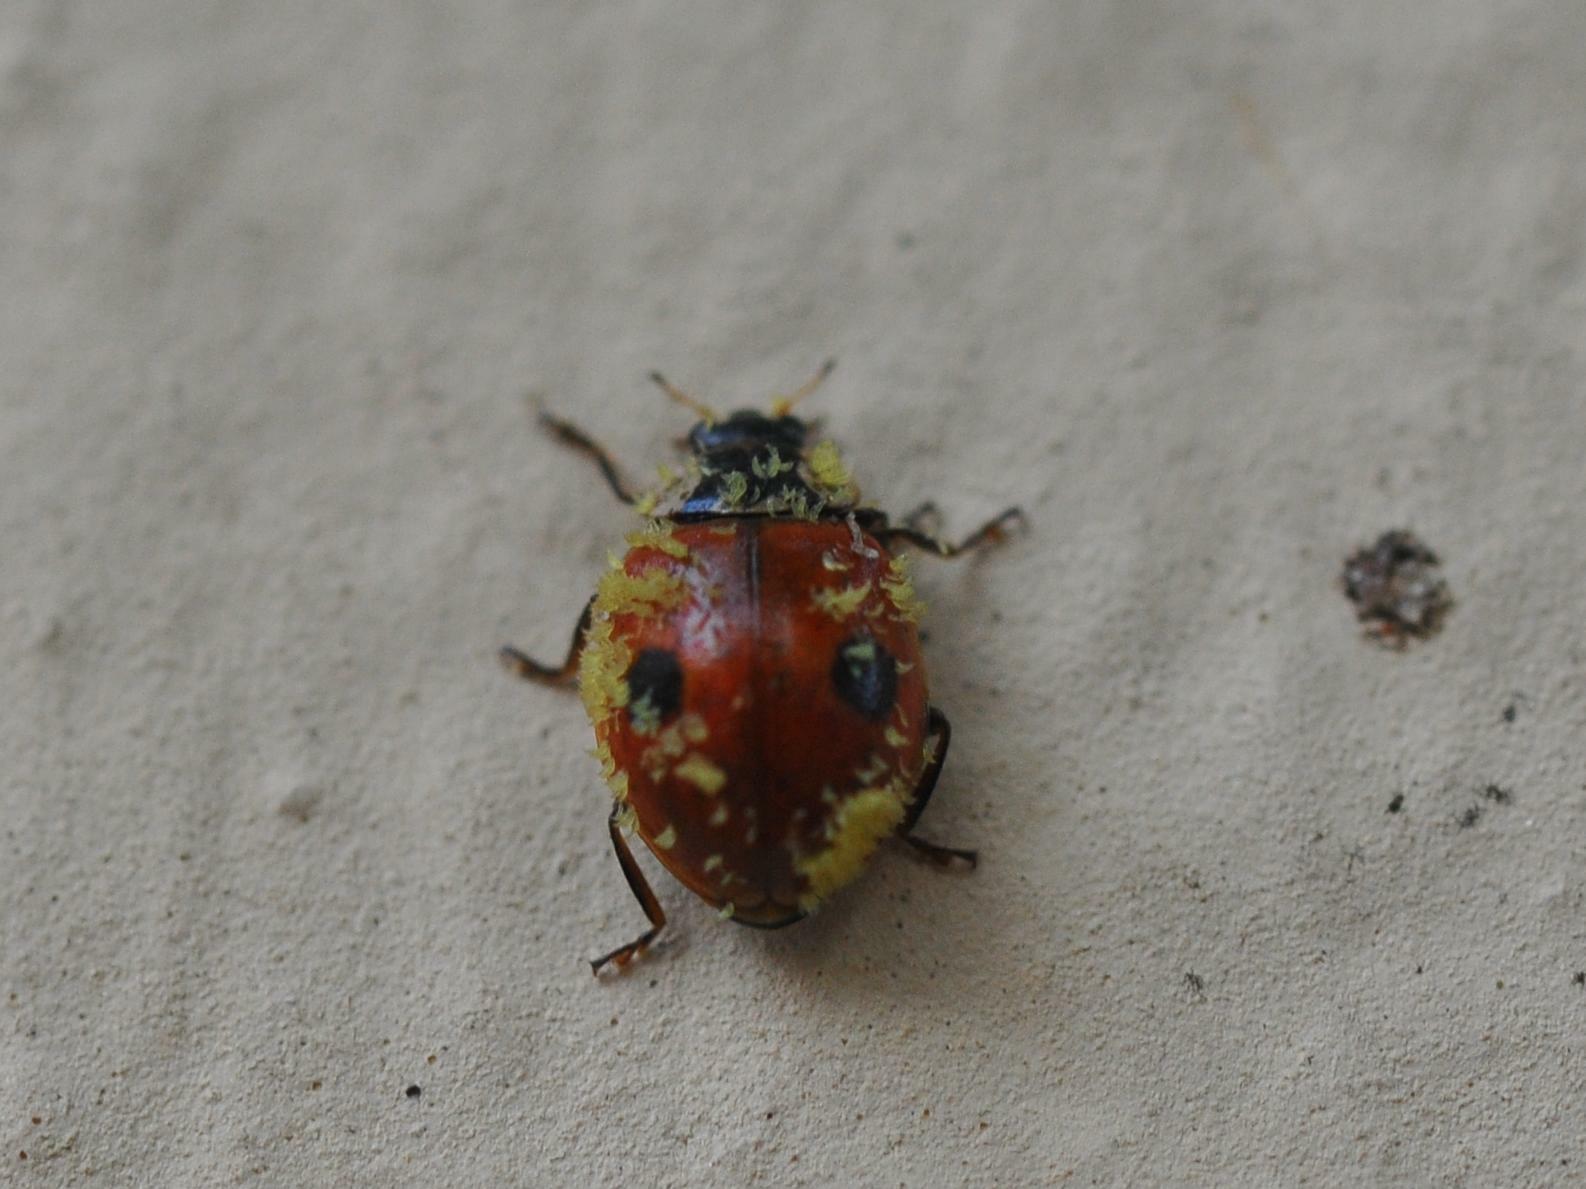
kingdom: Animalia
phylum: Arthropoda
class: Insecta
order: Coleoptera
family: Coccinellidae
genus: Adalia
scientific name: Adalia bipunctata
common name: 2-spot ladybird
